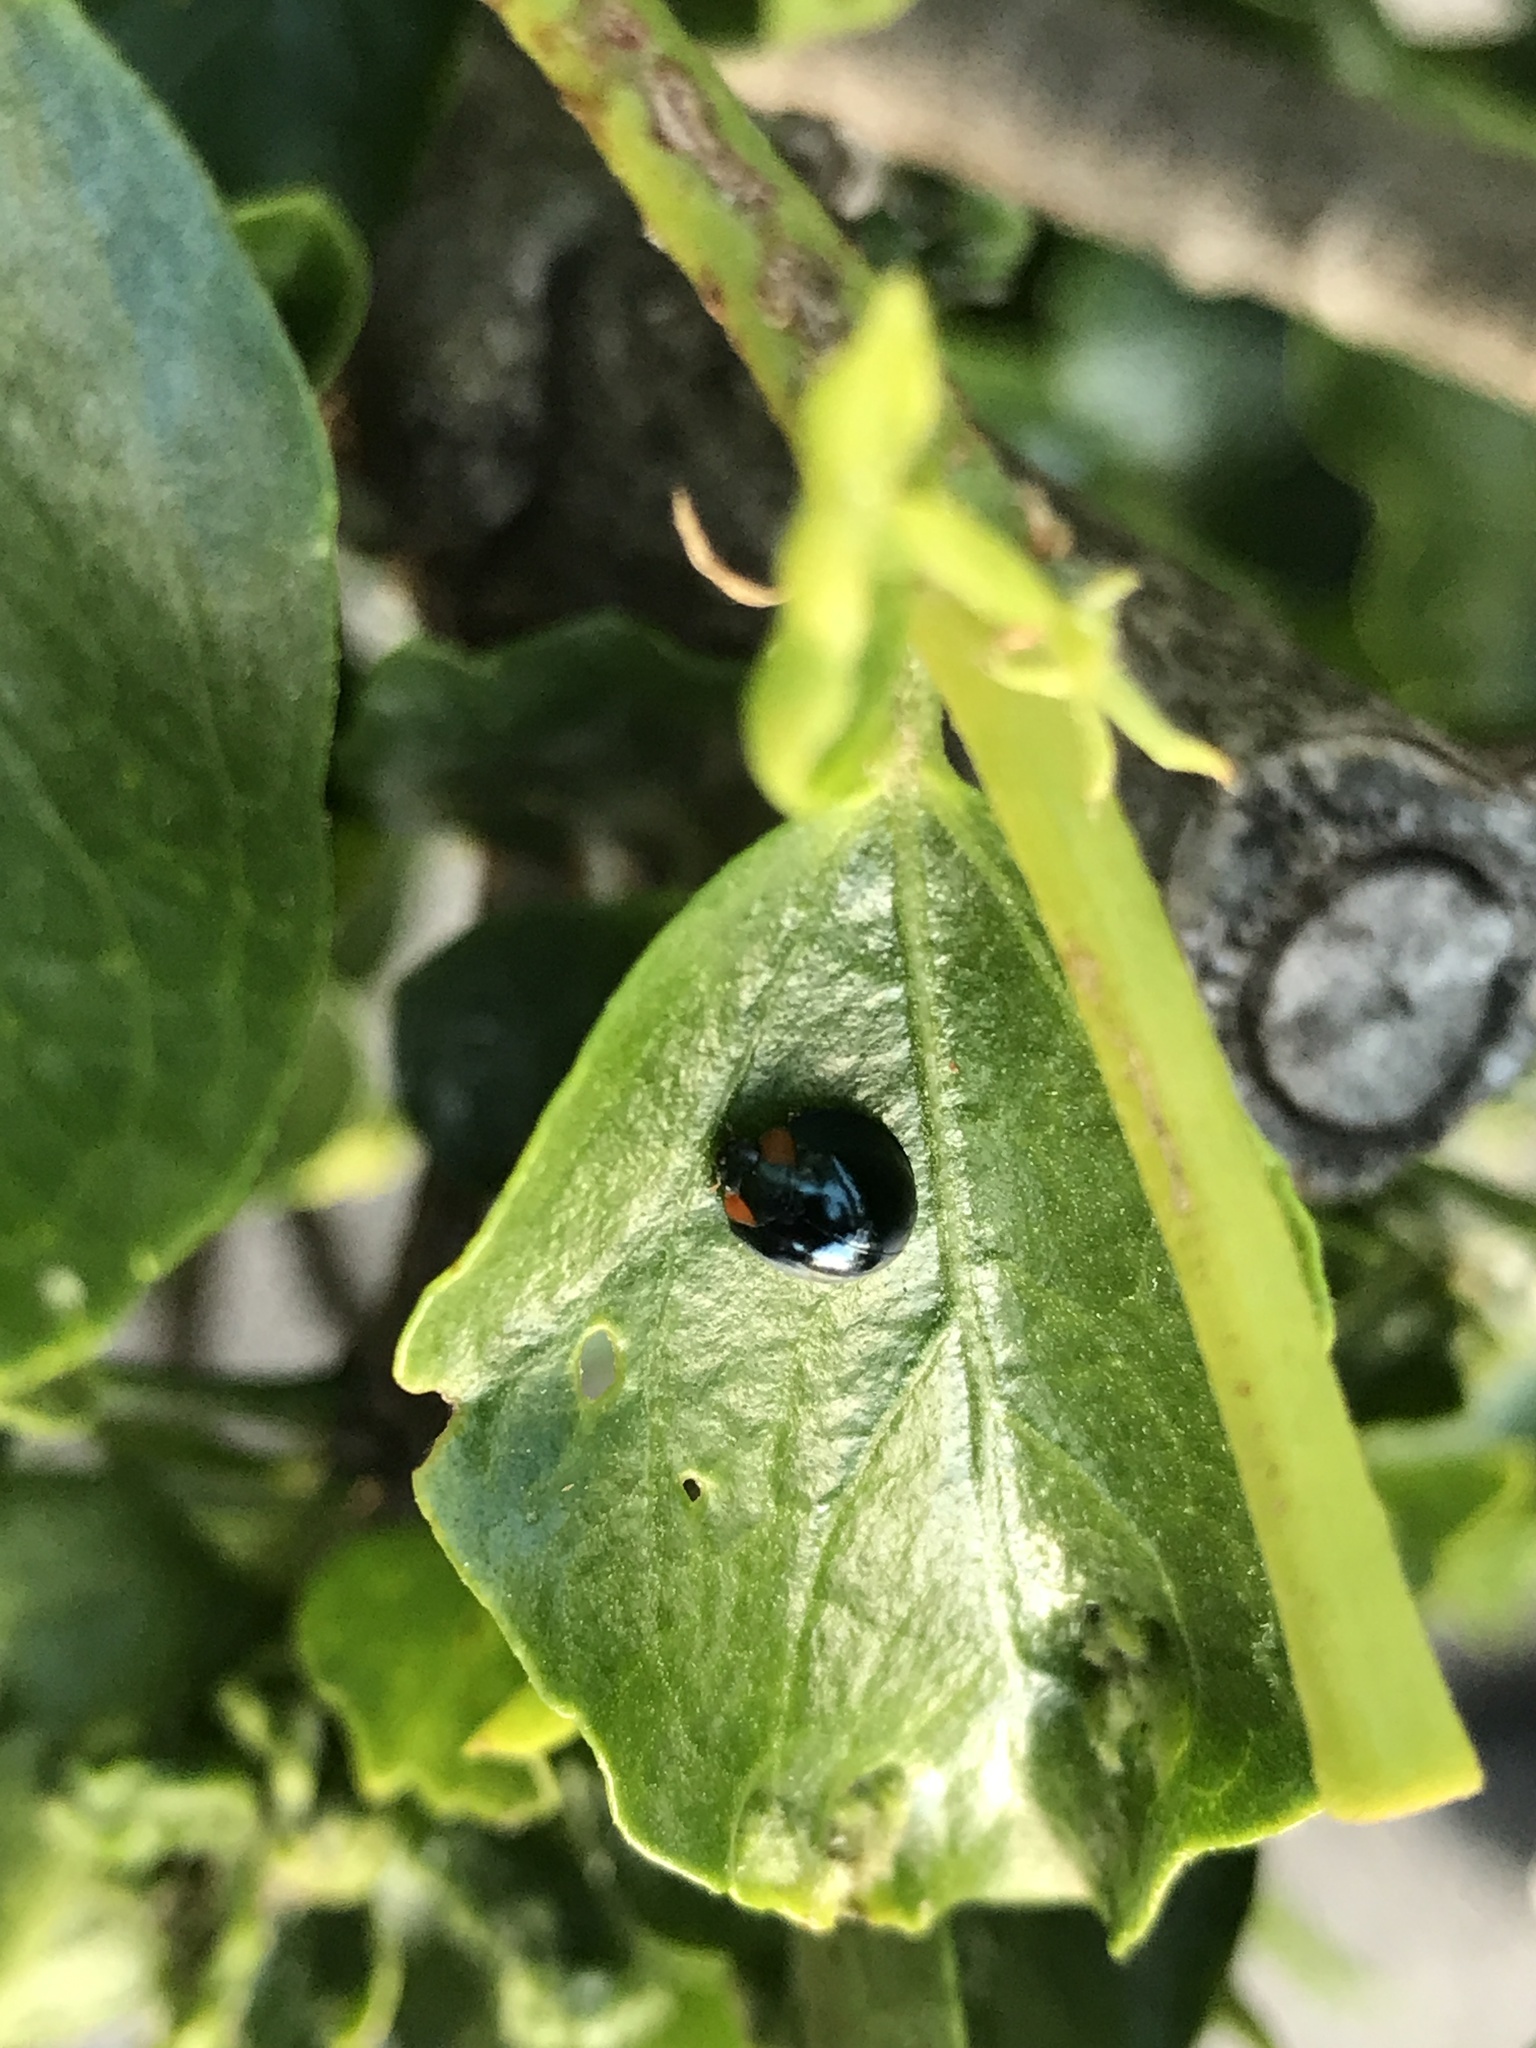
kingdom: Animalia
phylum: Arthropoda
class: Insecta
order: Coleoptera
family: Coccinellidae
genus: Curinus
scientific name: Curinus coeruleus
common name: Ladybird beetle
